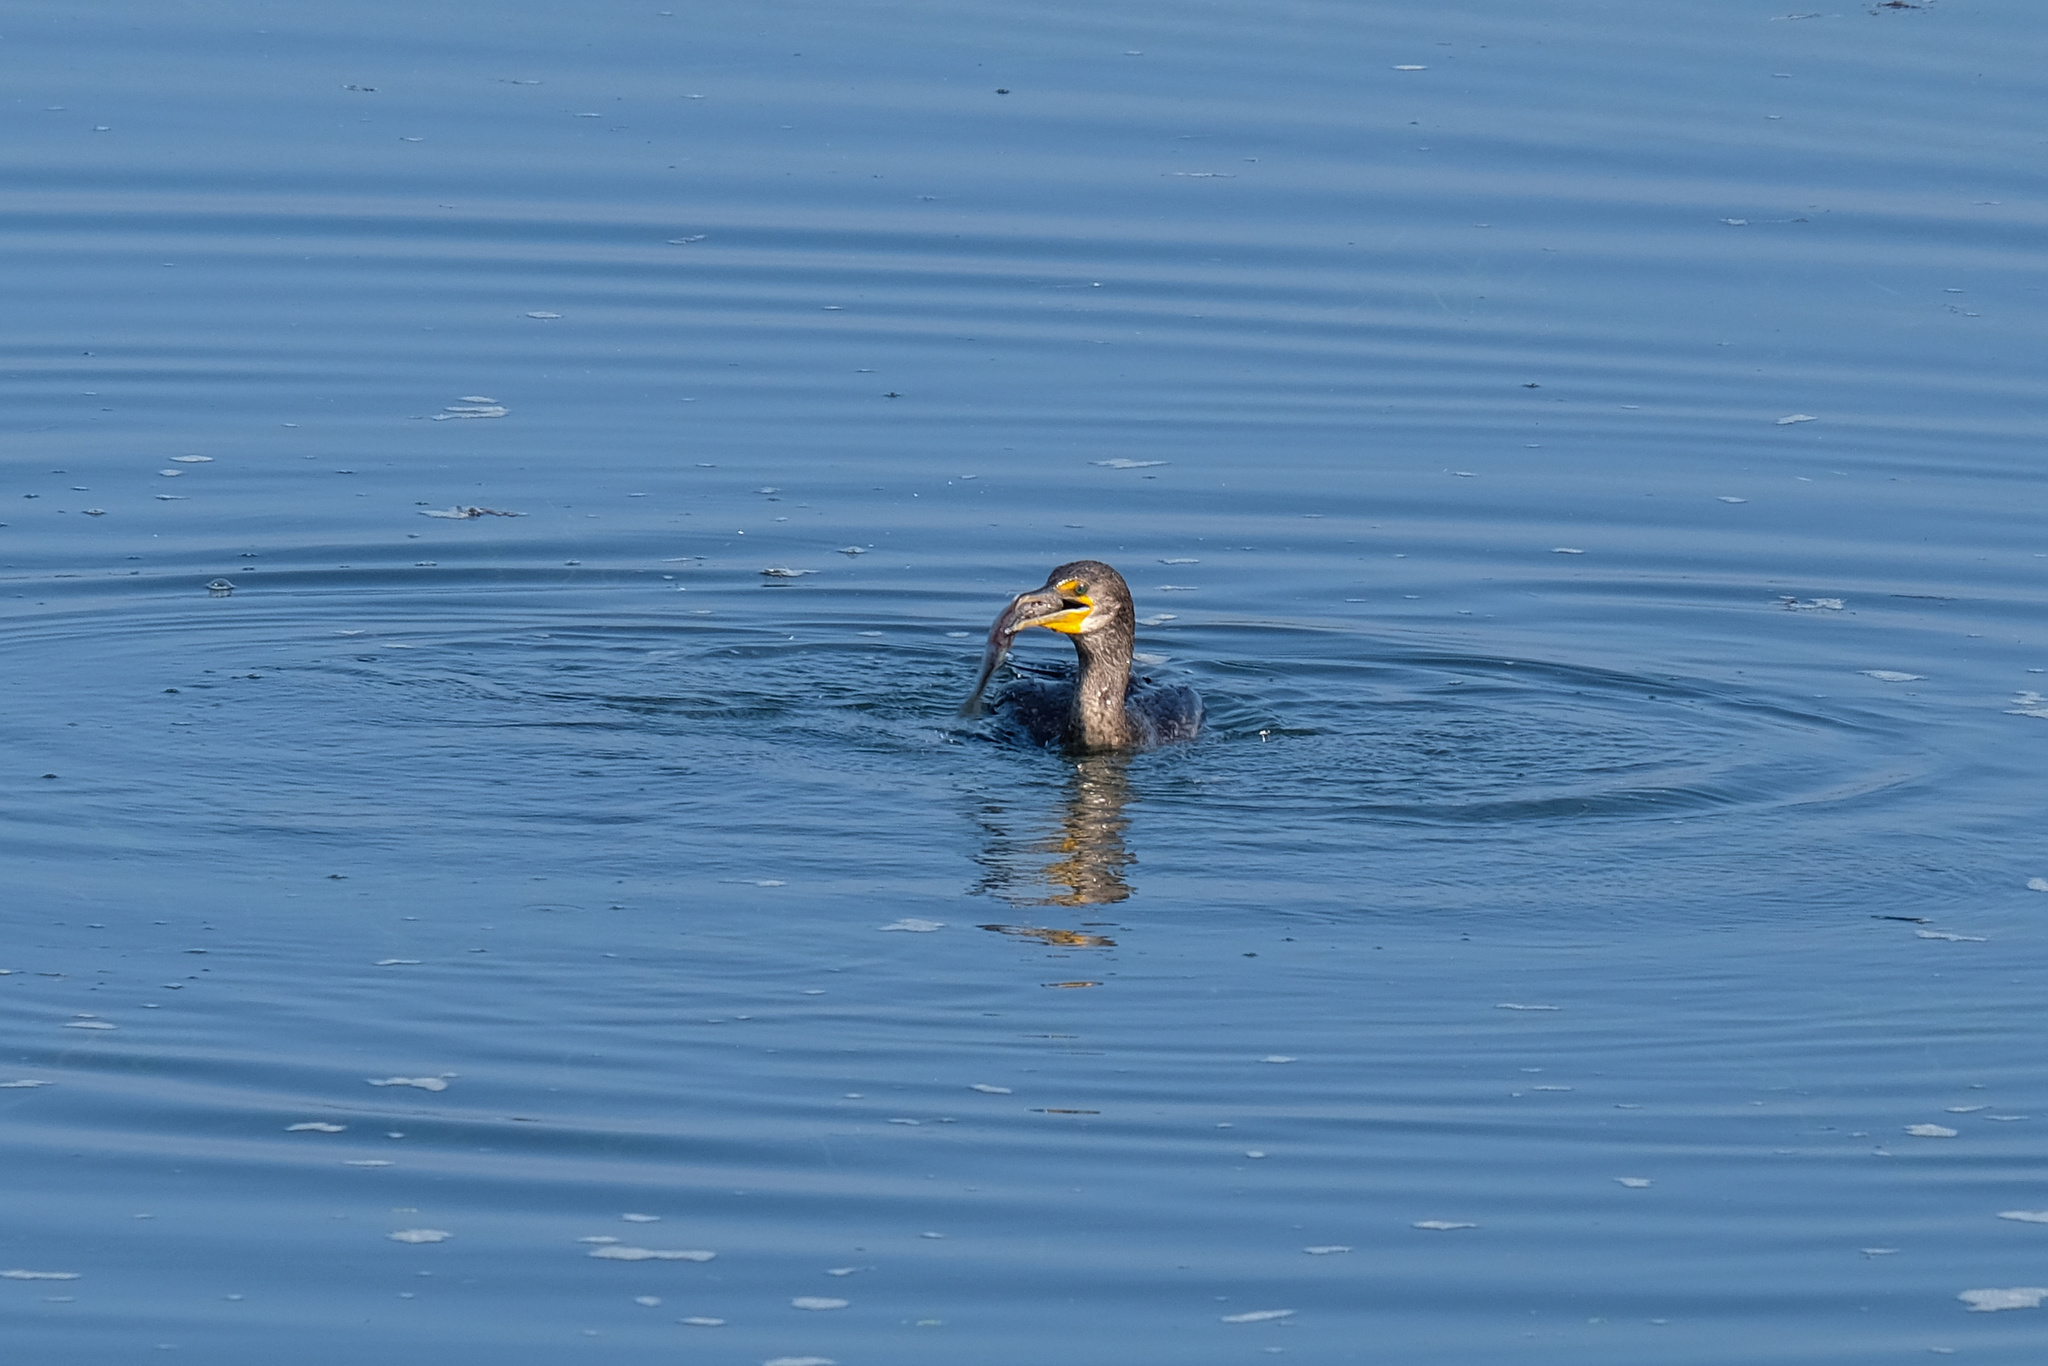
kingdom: Animalia
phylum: Chordata
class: Aves
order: Suliformes
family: Phalacrocoracidae
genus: Phalacrocorax
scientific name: Phalacrocorax auritus
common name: Double-crested cormorant
